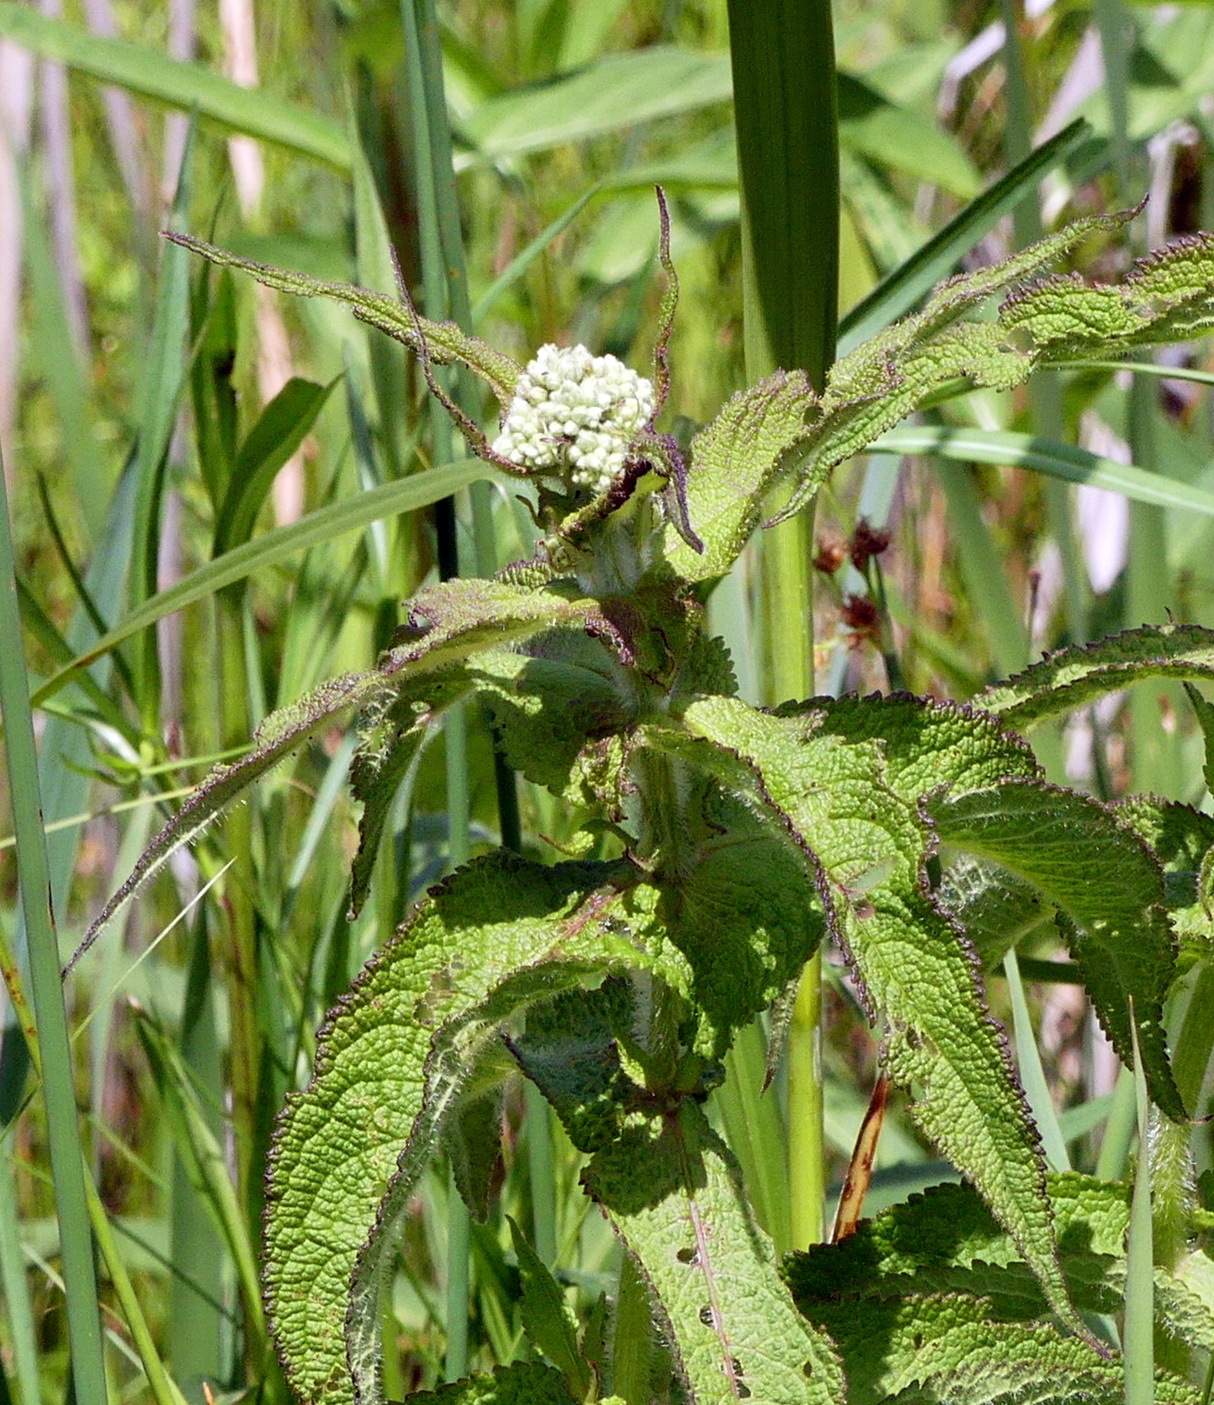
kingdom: Plantae
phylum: Tracheophyta
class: Magnoliopsida
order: Asterales
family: Asteraceae
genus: Eupatorium
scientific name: Eupatorium perfoliatum
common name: Boneset
